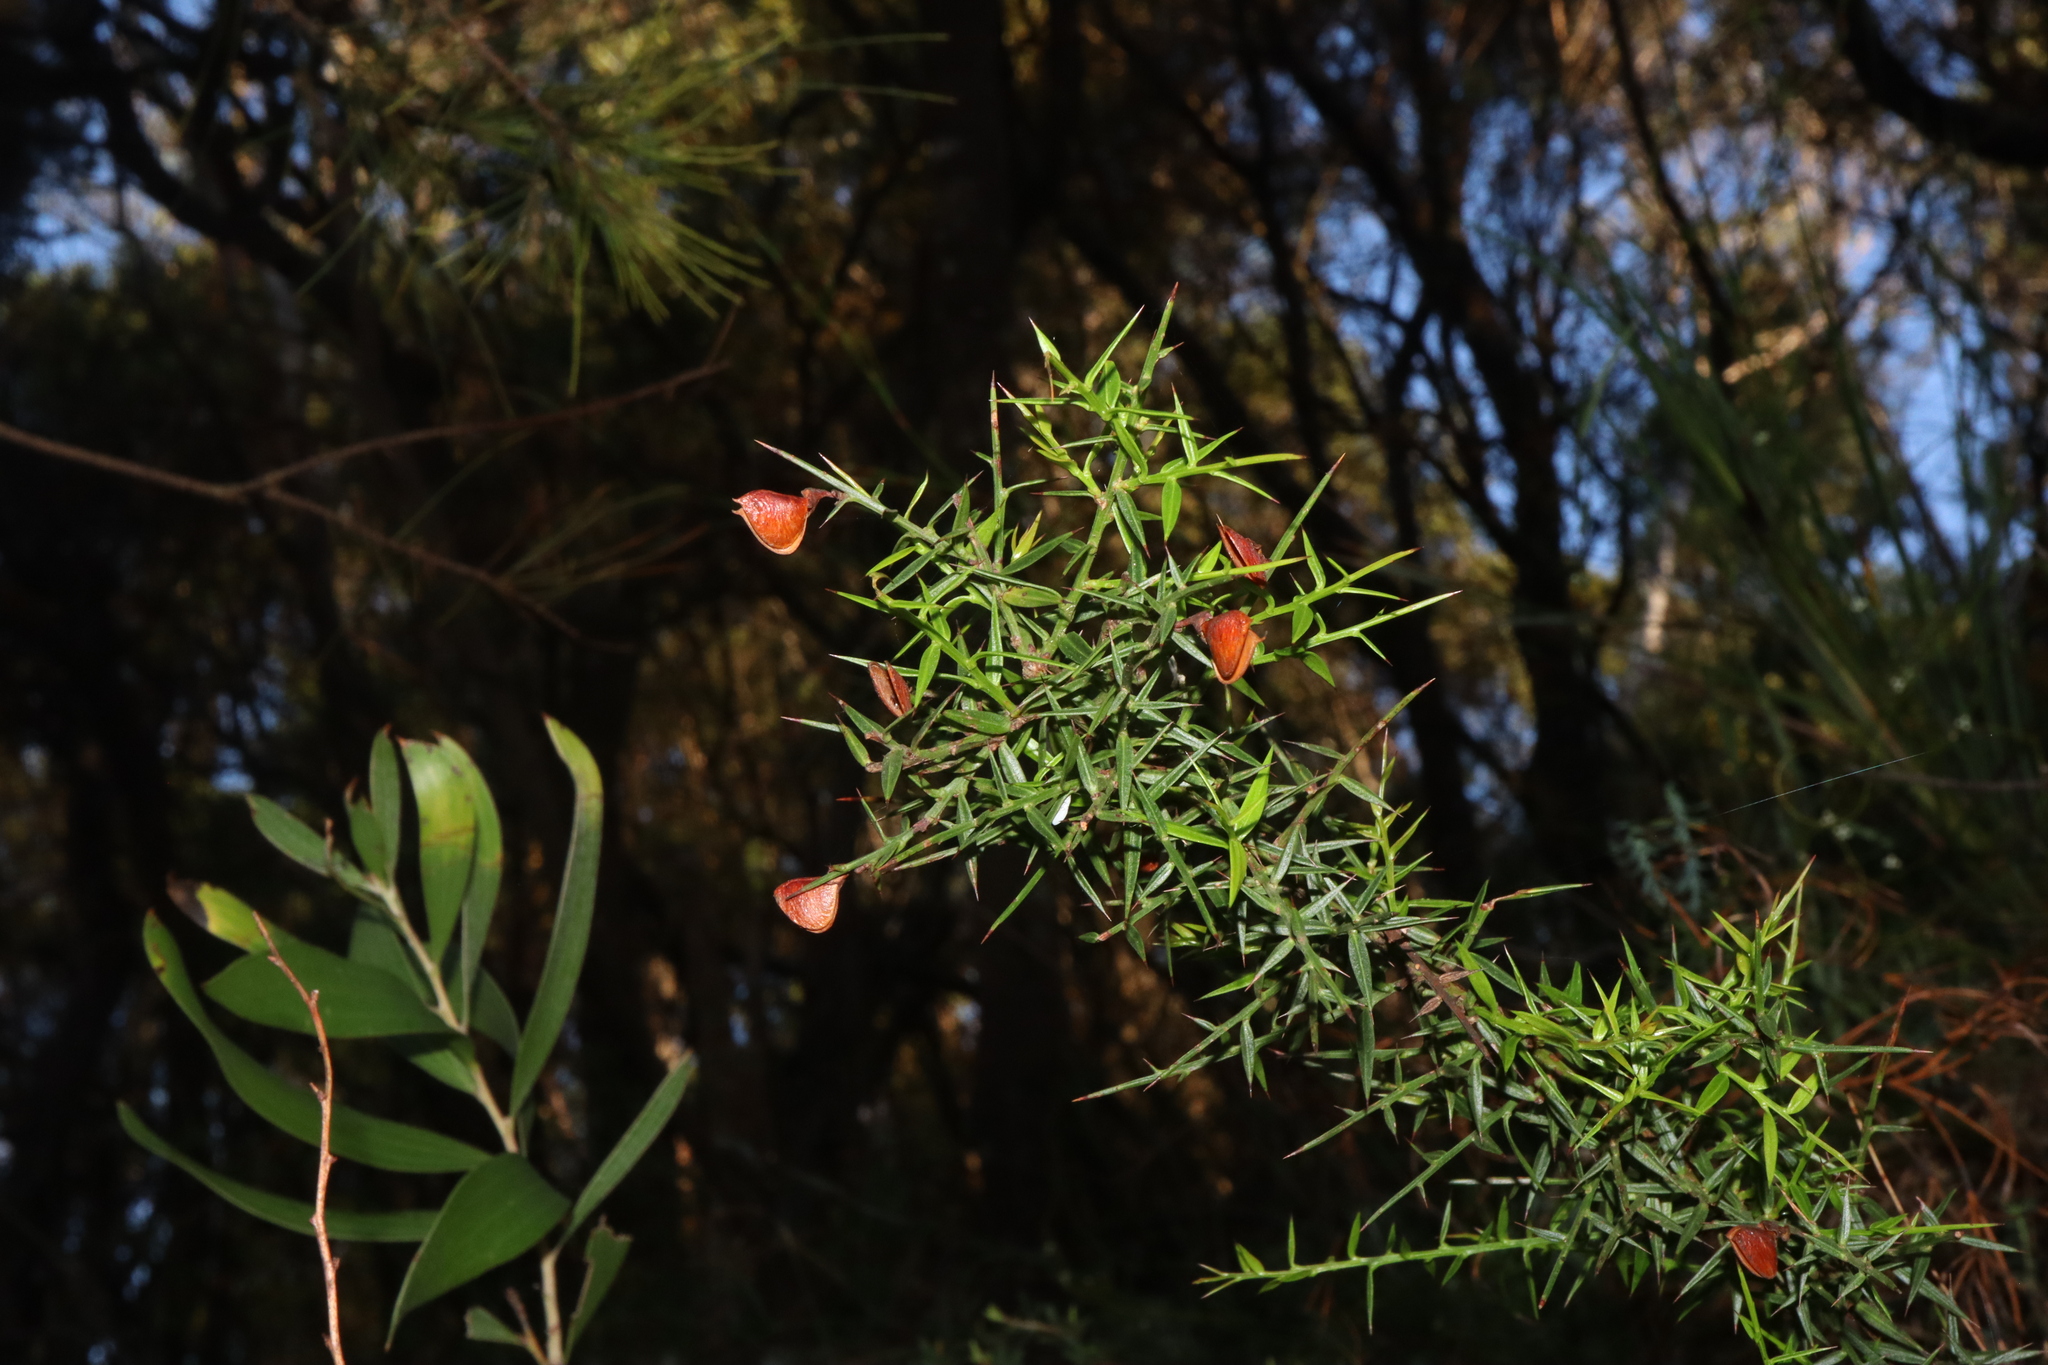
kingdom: Plantae
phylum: Tracheophyta
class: Magnoliopsida
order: Fabales
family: Fabaceae
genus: Daviesia
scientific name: Daviesia ulicifolia
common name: Gorse bitter-pea
